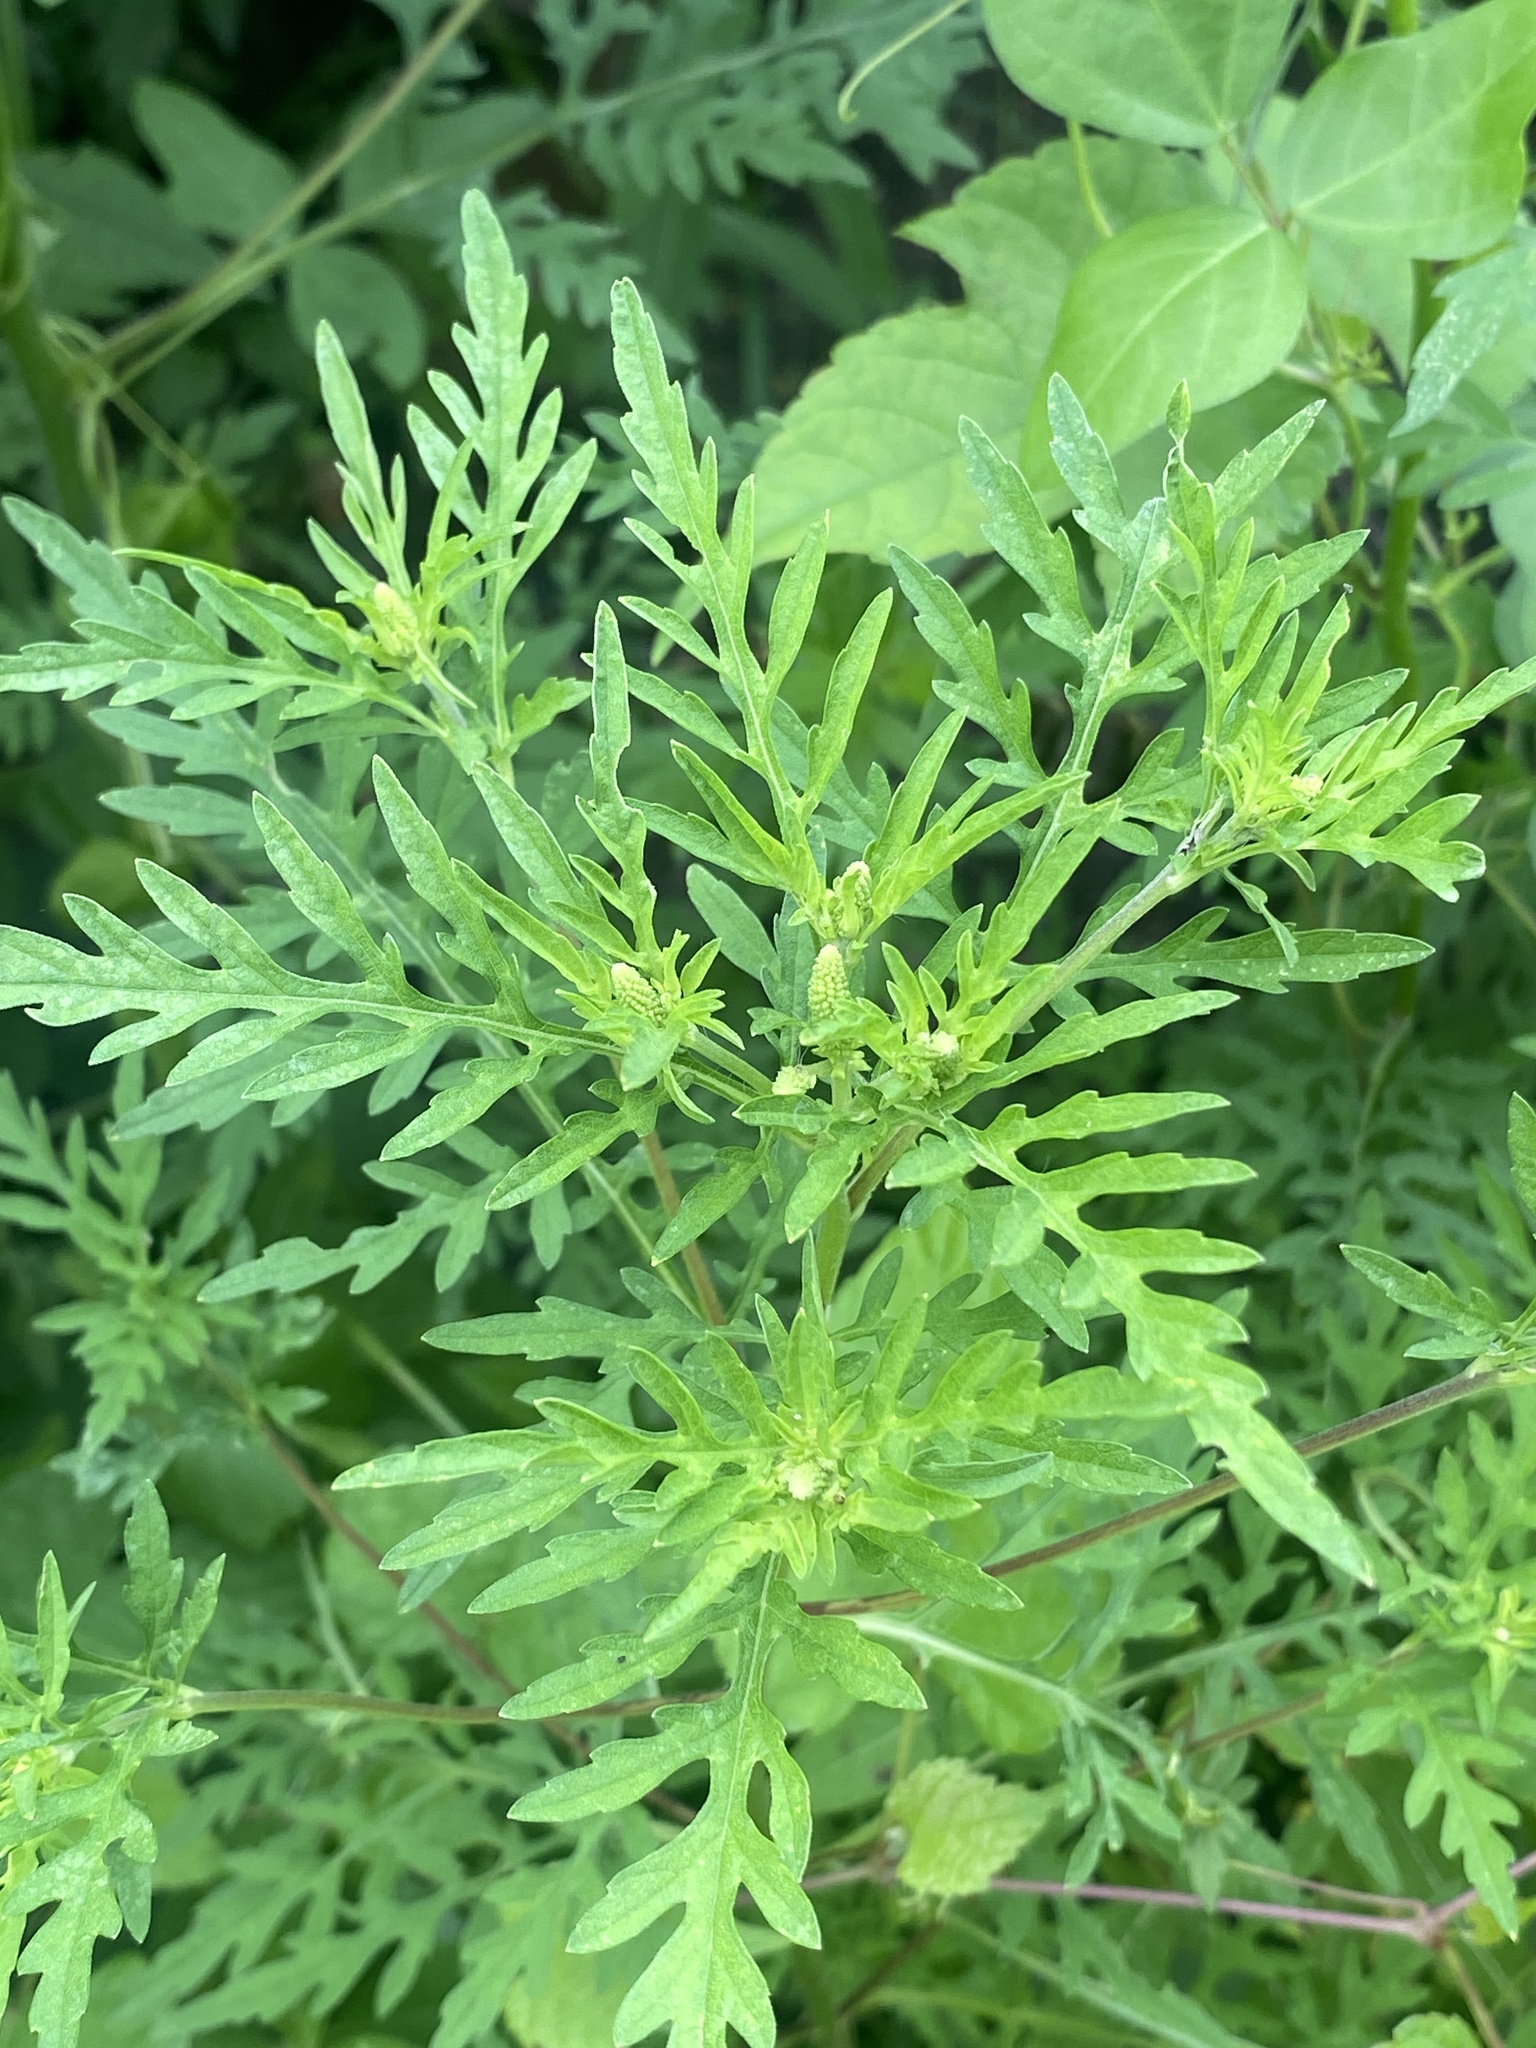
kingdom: Plantae
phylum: Tracheophyta
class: Magnoliopsida
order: Asterales
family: Asteraceae
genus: Ambrosia
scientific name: Ambrosia artemisiifolia
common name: Annual ragweed
